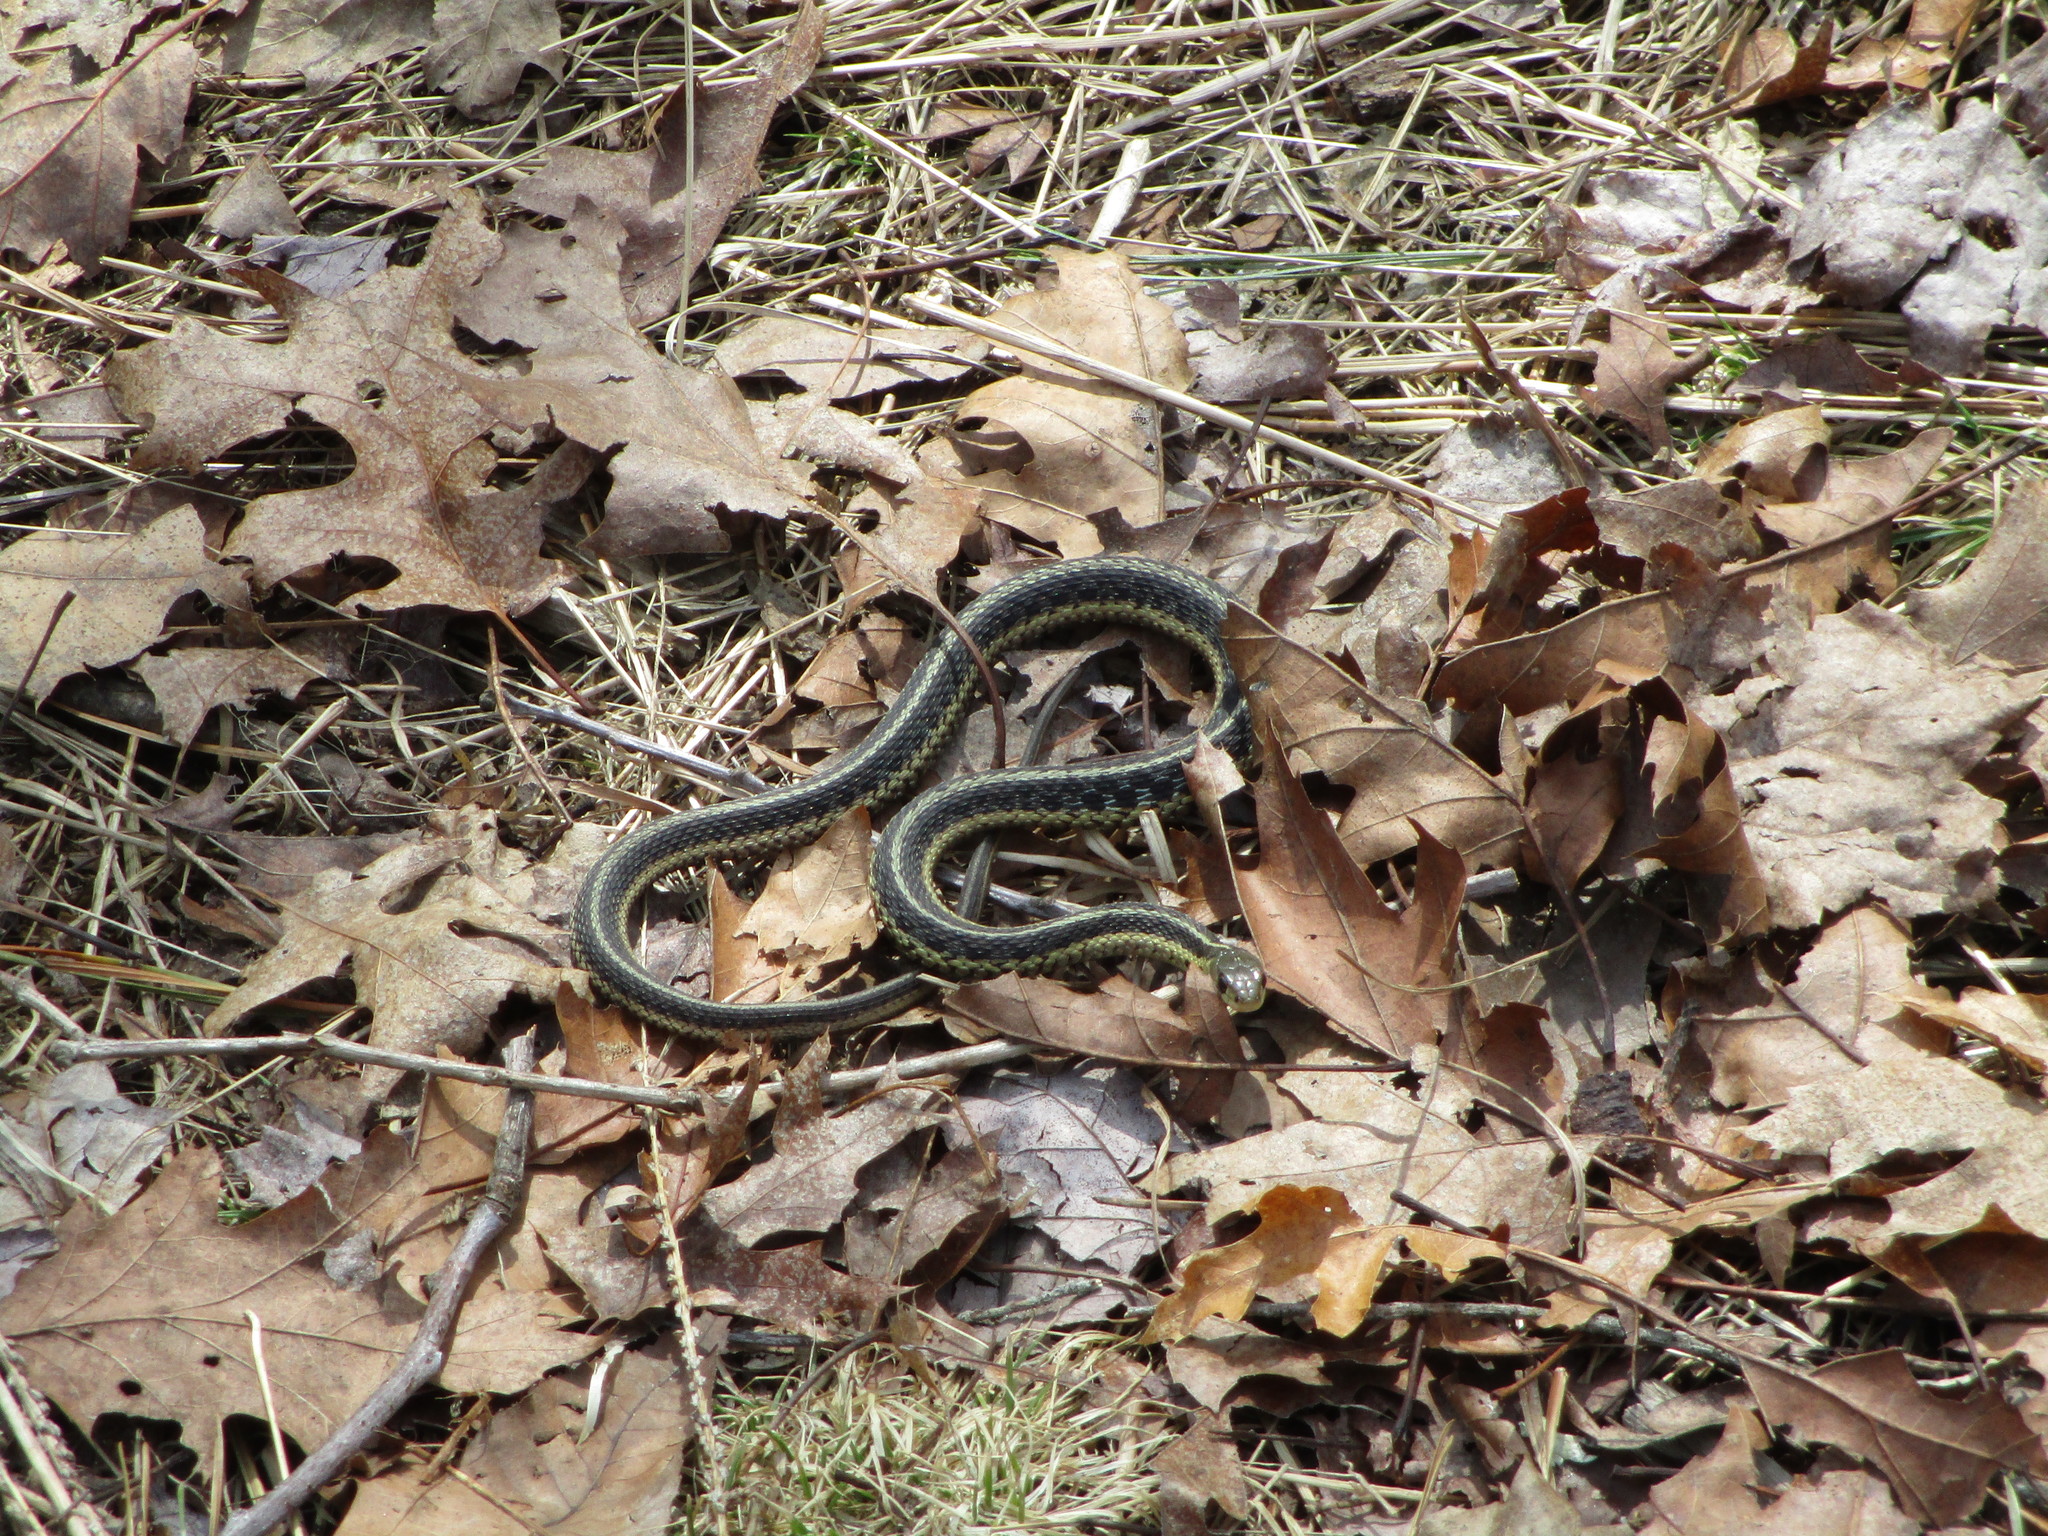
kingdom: Animalia
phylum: Chordata
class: Squamata
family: Colubridae
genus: Thamnophis
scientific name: Thamnophis sirtalis
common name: Common garter snake
